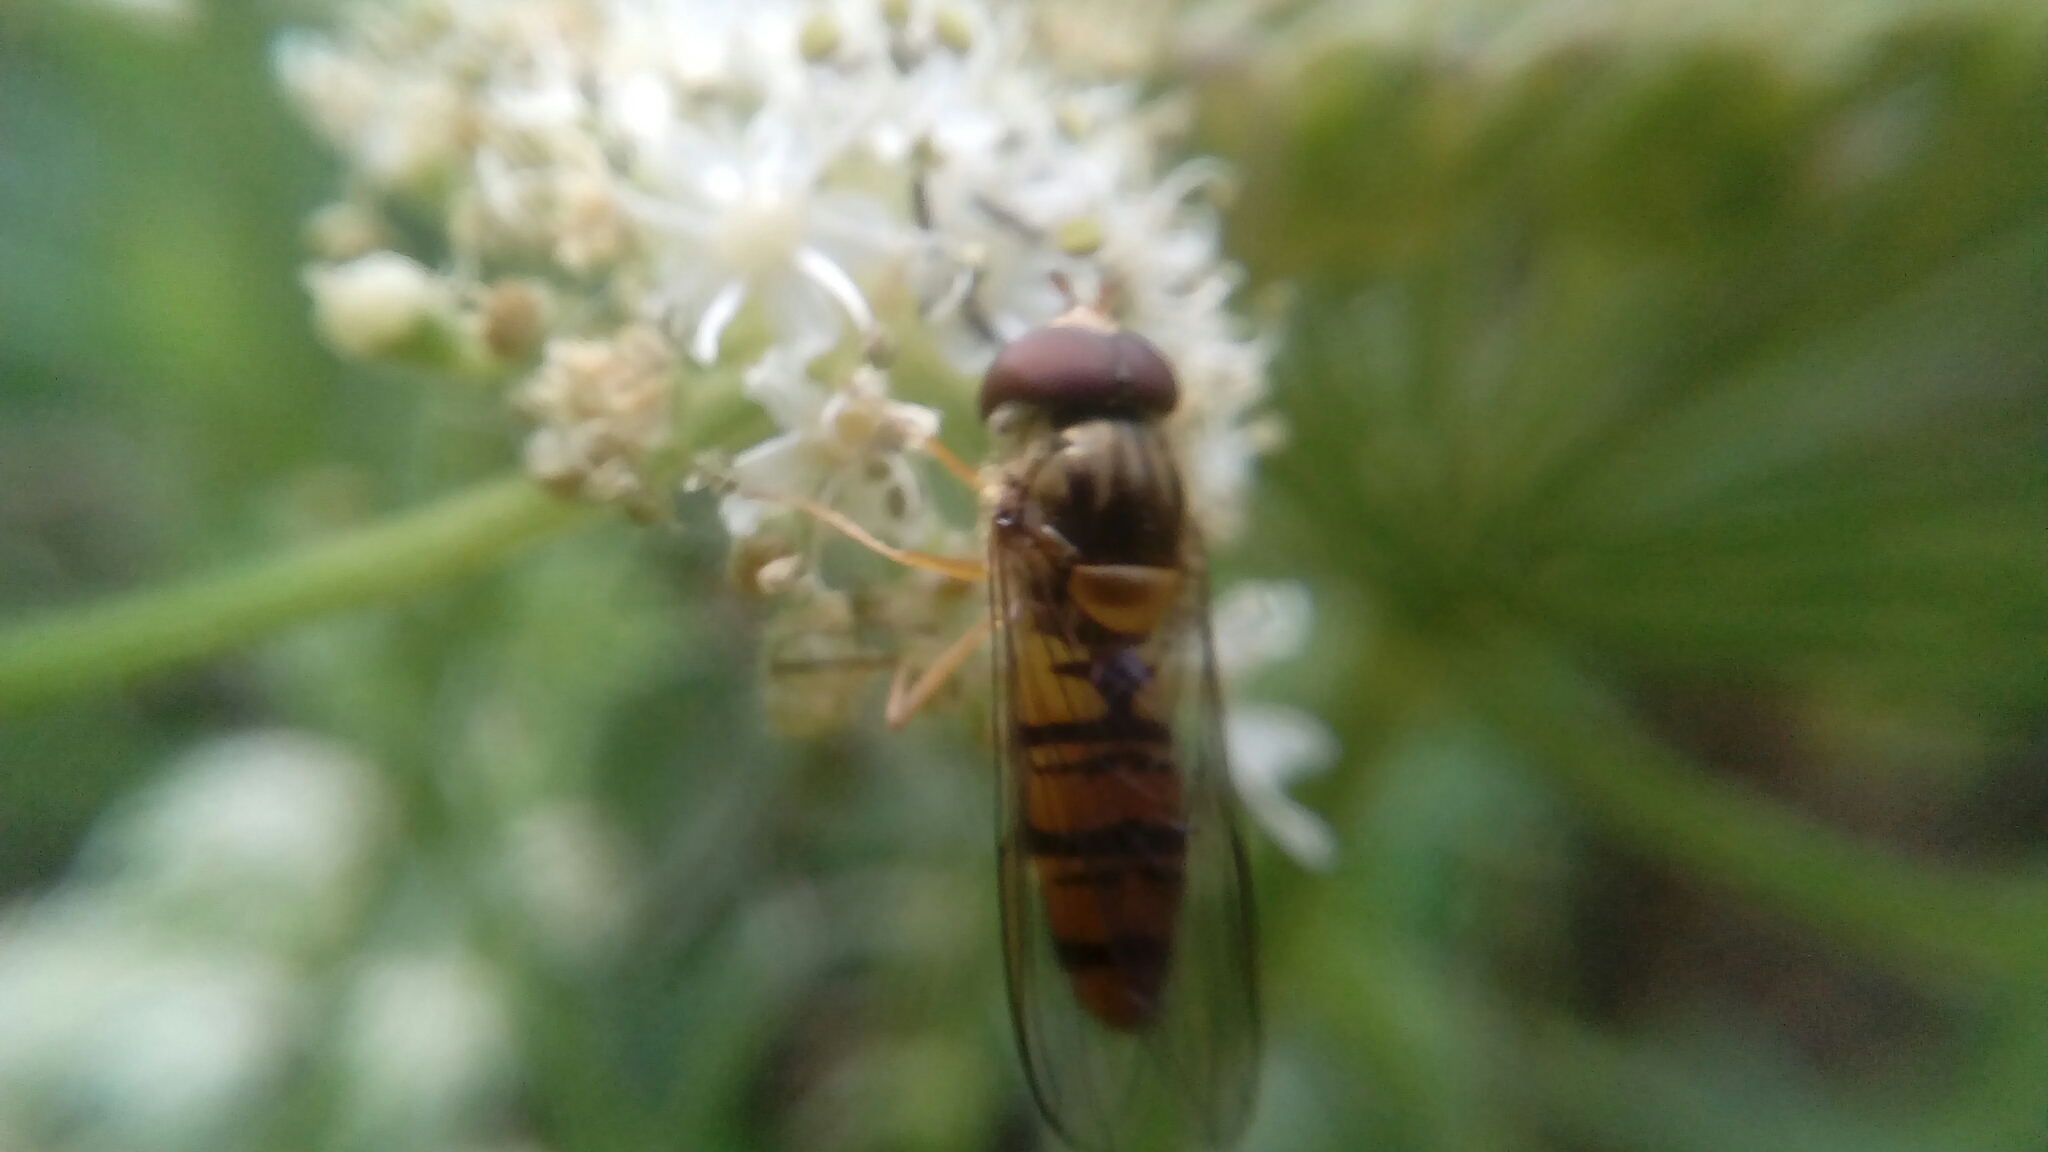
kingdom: Animalia
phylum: Arthropoda
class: Insecta
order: Diptera
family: Syrphidae
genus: Episyrphus
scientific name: Episyrphus balteatus
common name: Marmalade hoverfly
